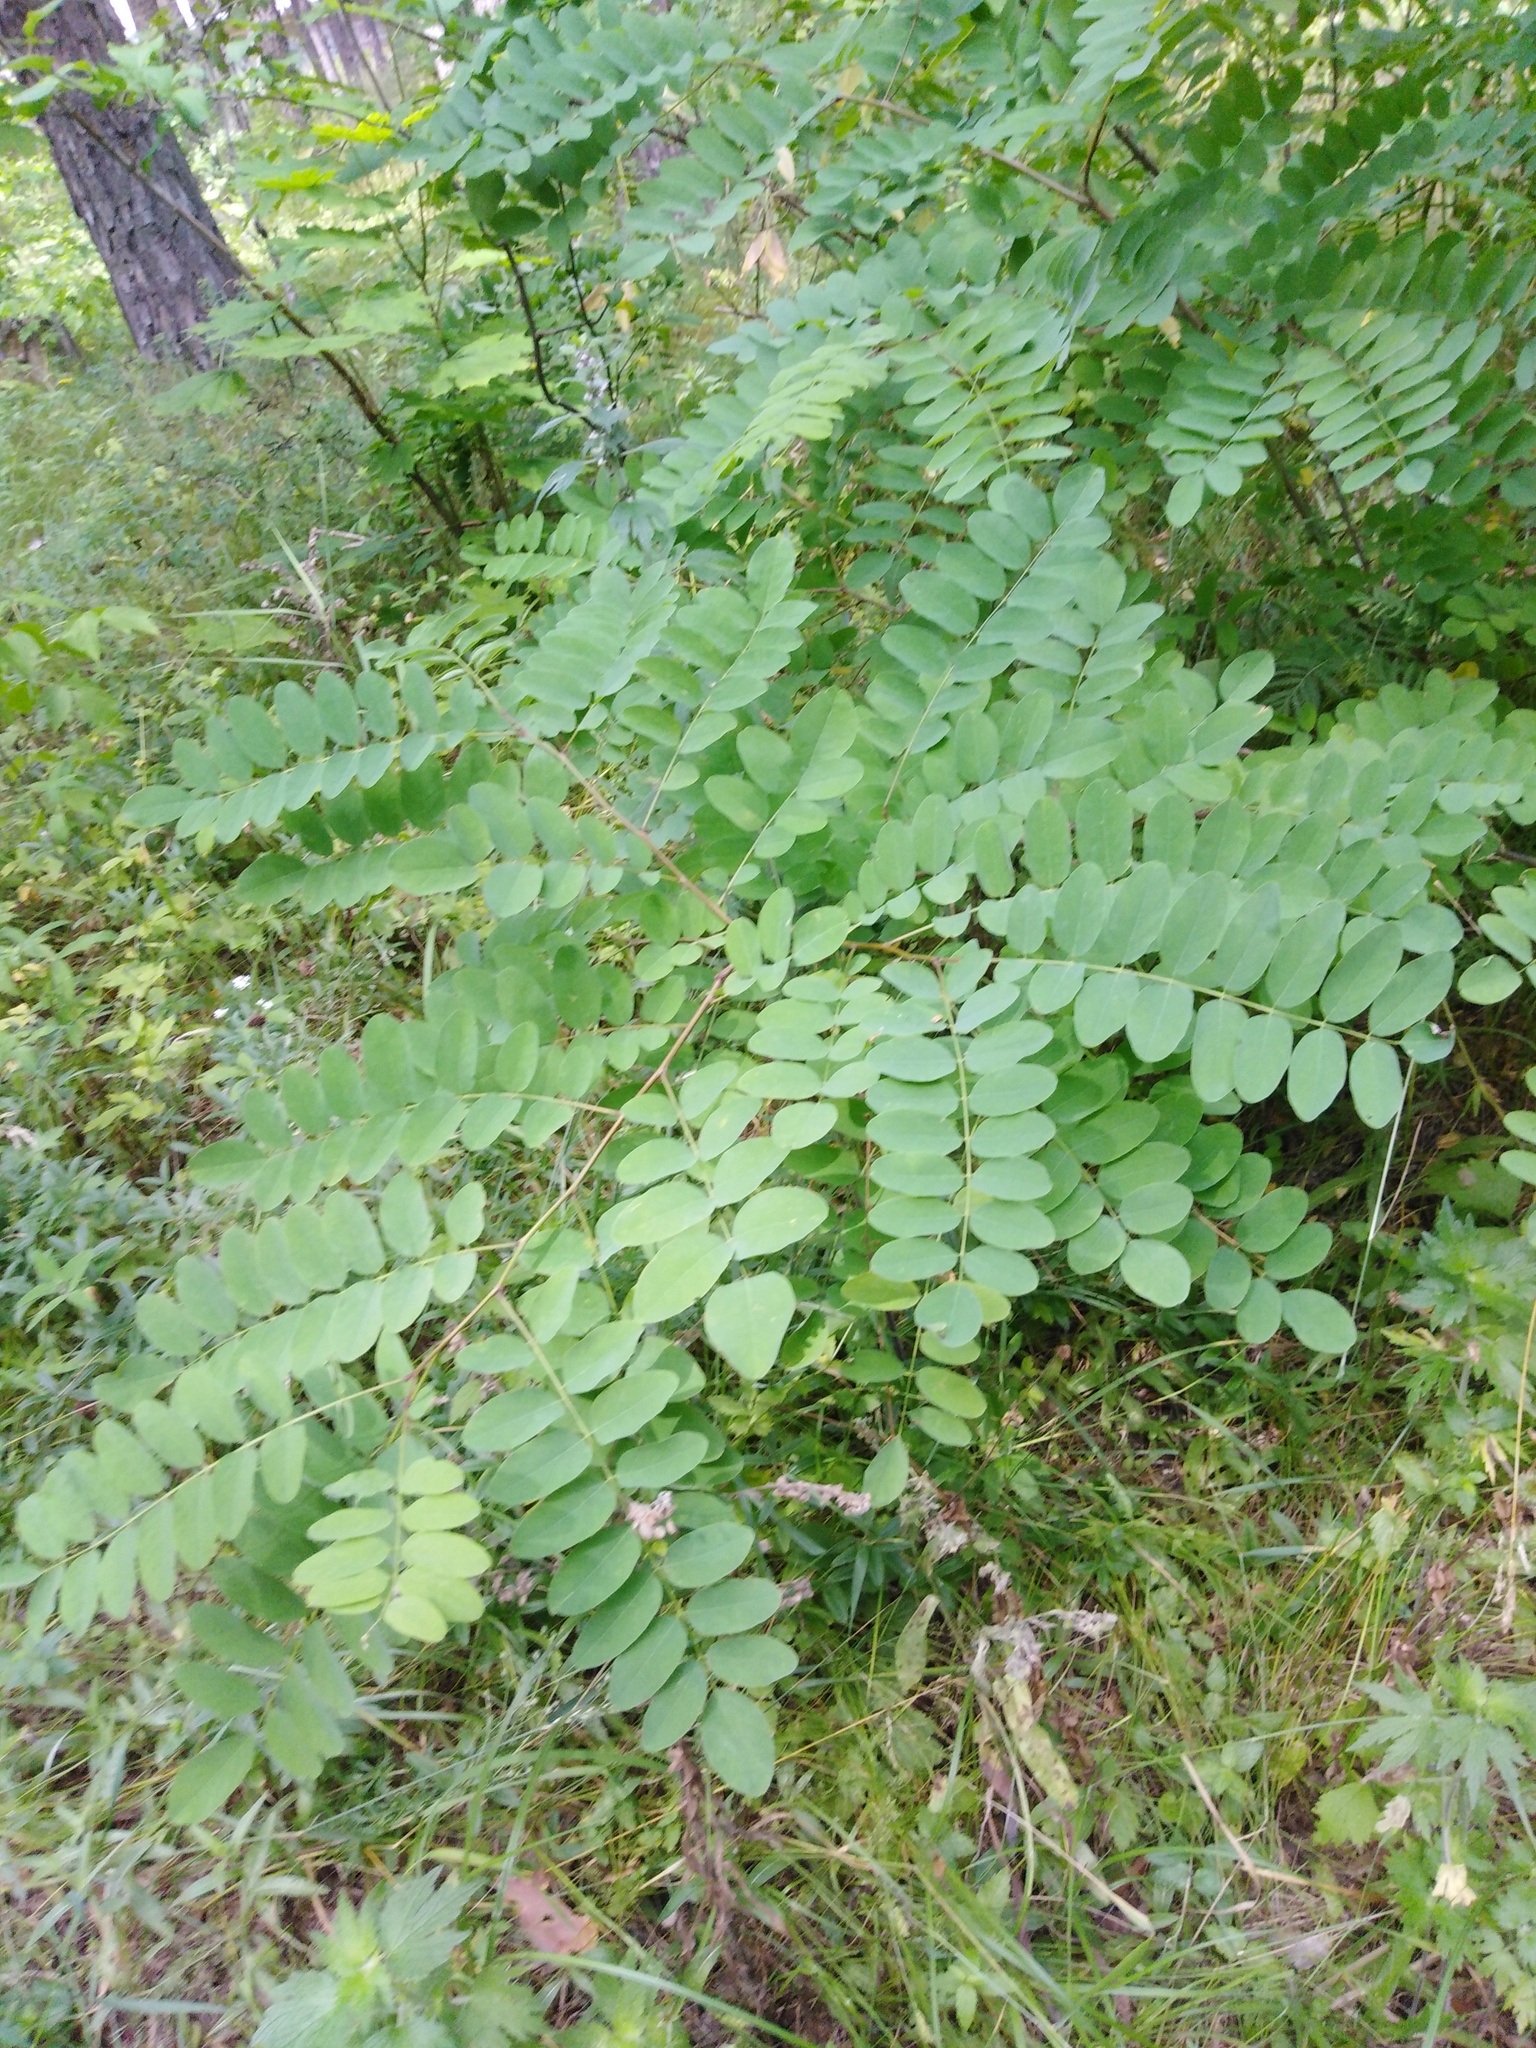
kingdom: Plantae
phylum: Tracheophyta
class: Magnoliopsida
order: Fabales
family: Fabaceae
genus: Robinia
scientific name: Robinia pseudoacacia
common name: Black locust
